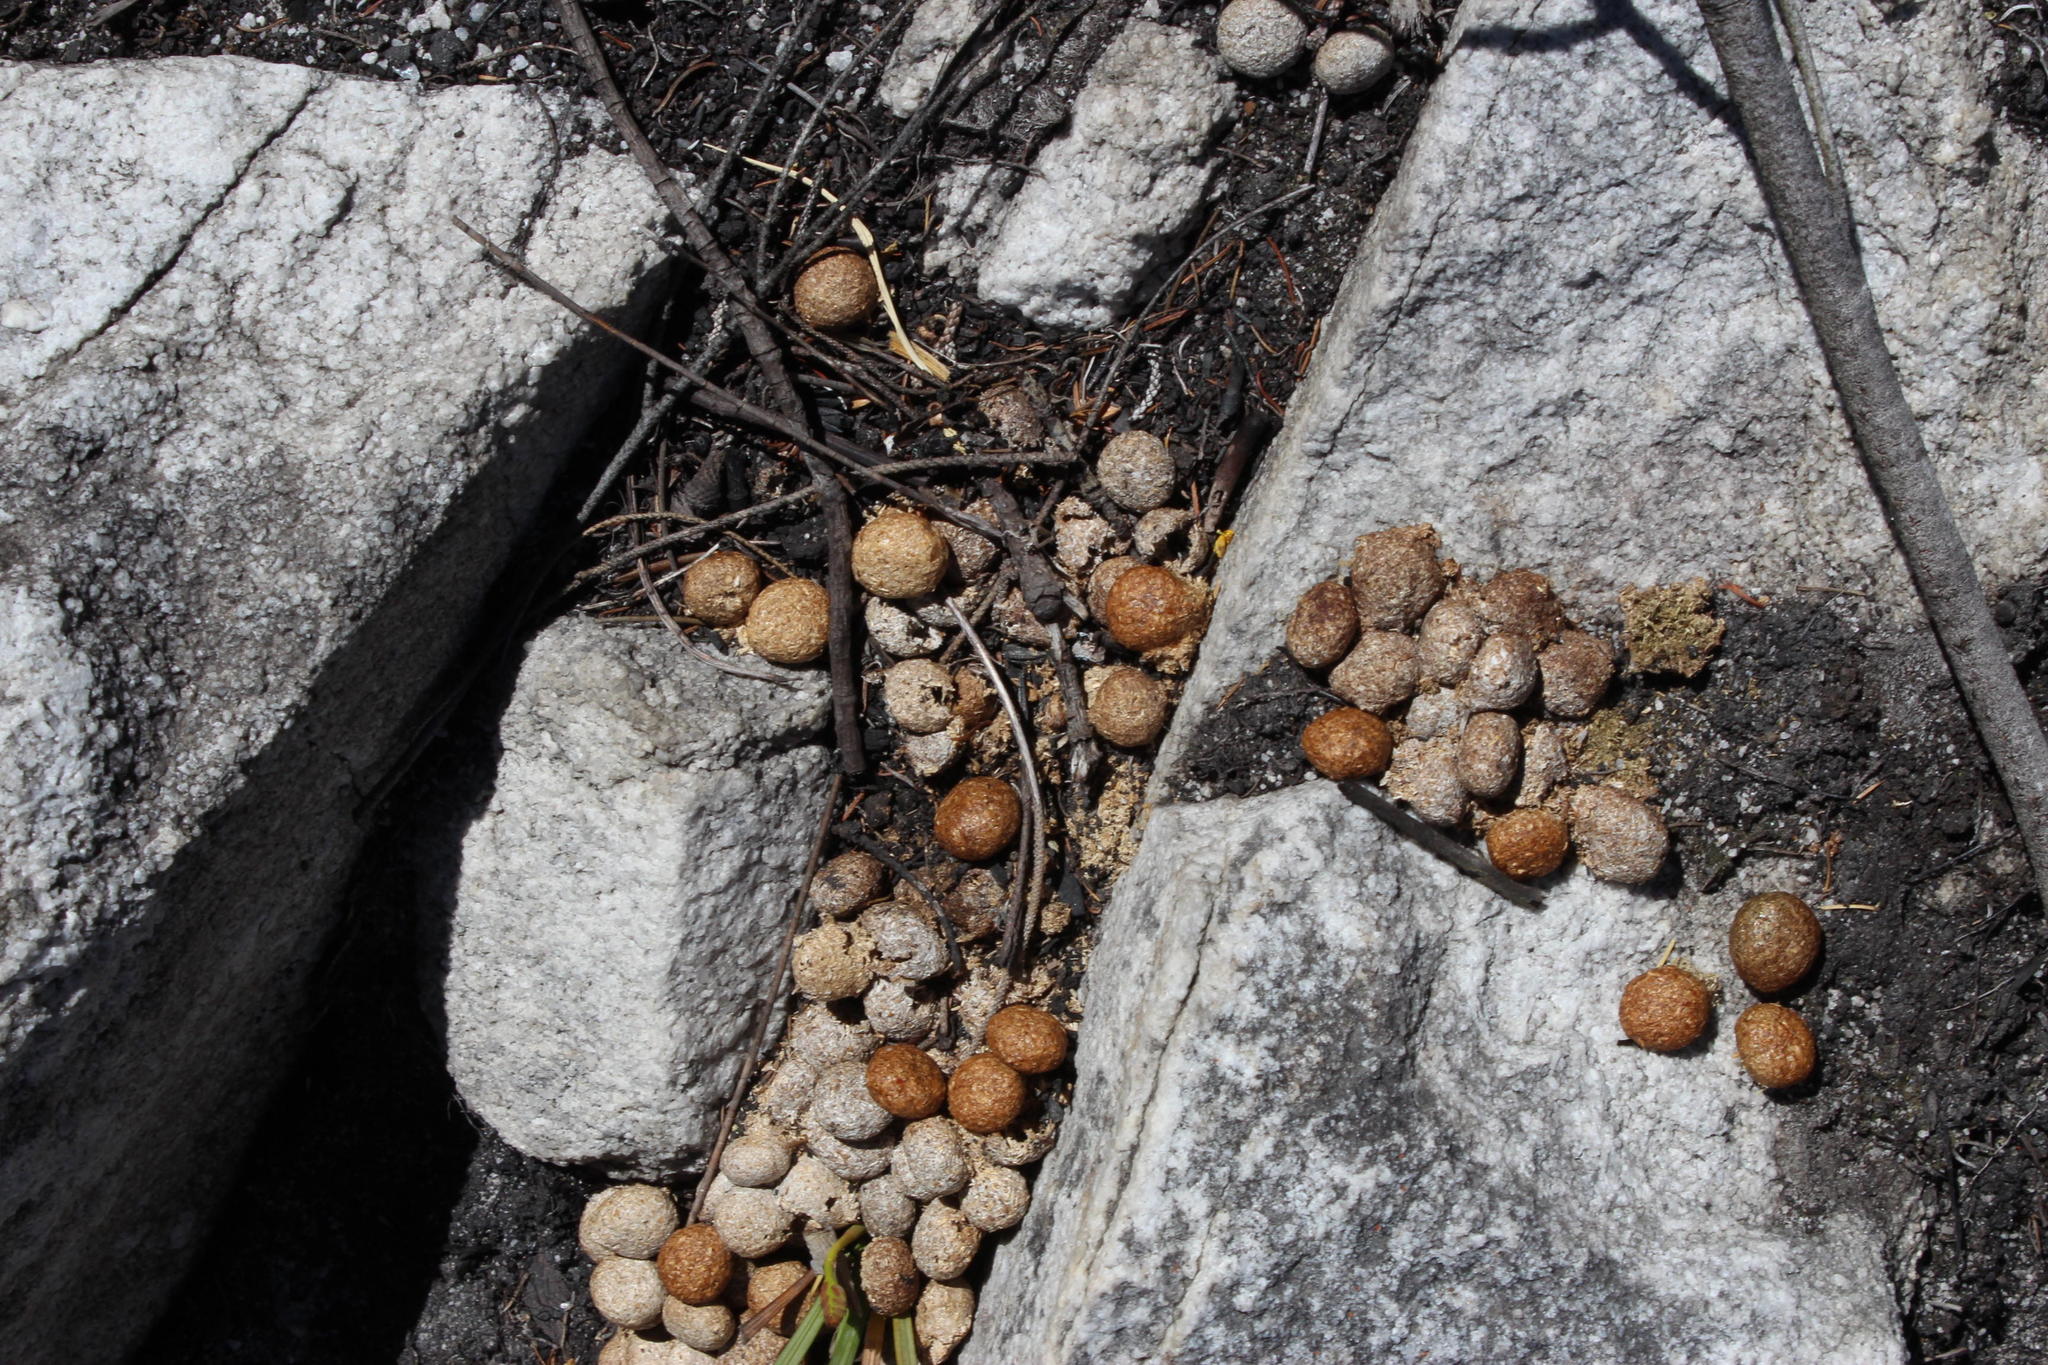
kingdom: Animalia
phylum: Chordata
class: Mammalia
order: Lagomorpha
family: Leporidae
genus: Pronolagus
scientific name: Pronolagus saundersiae
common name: Hewitt's red rock hare
